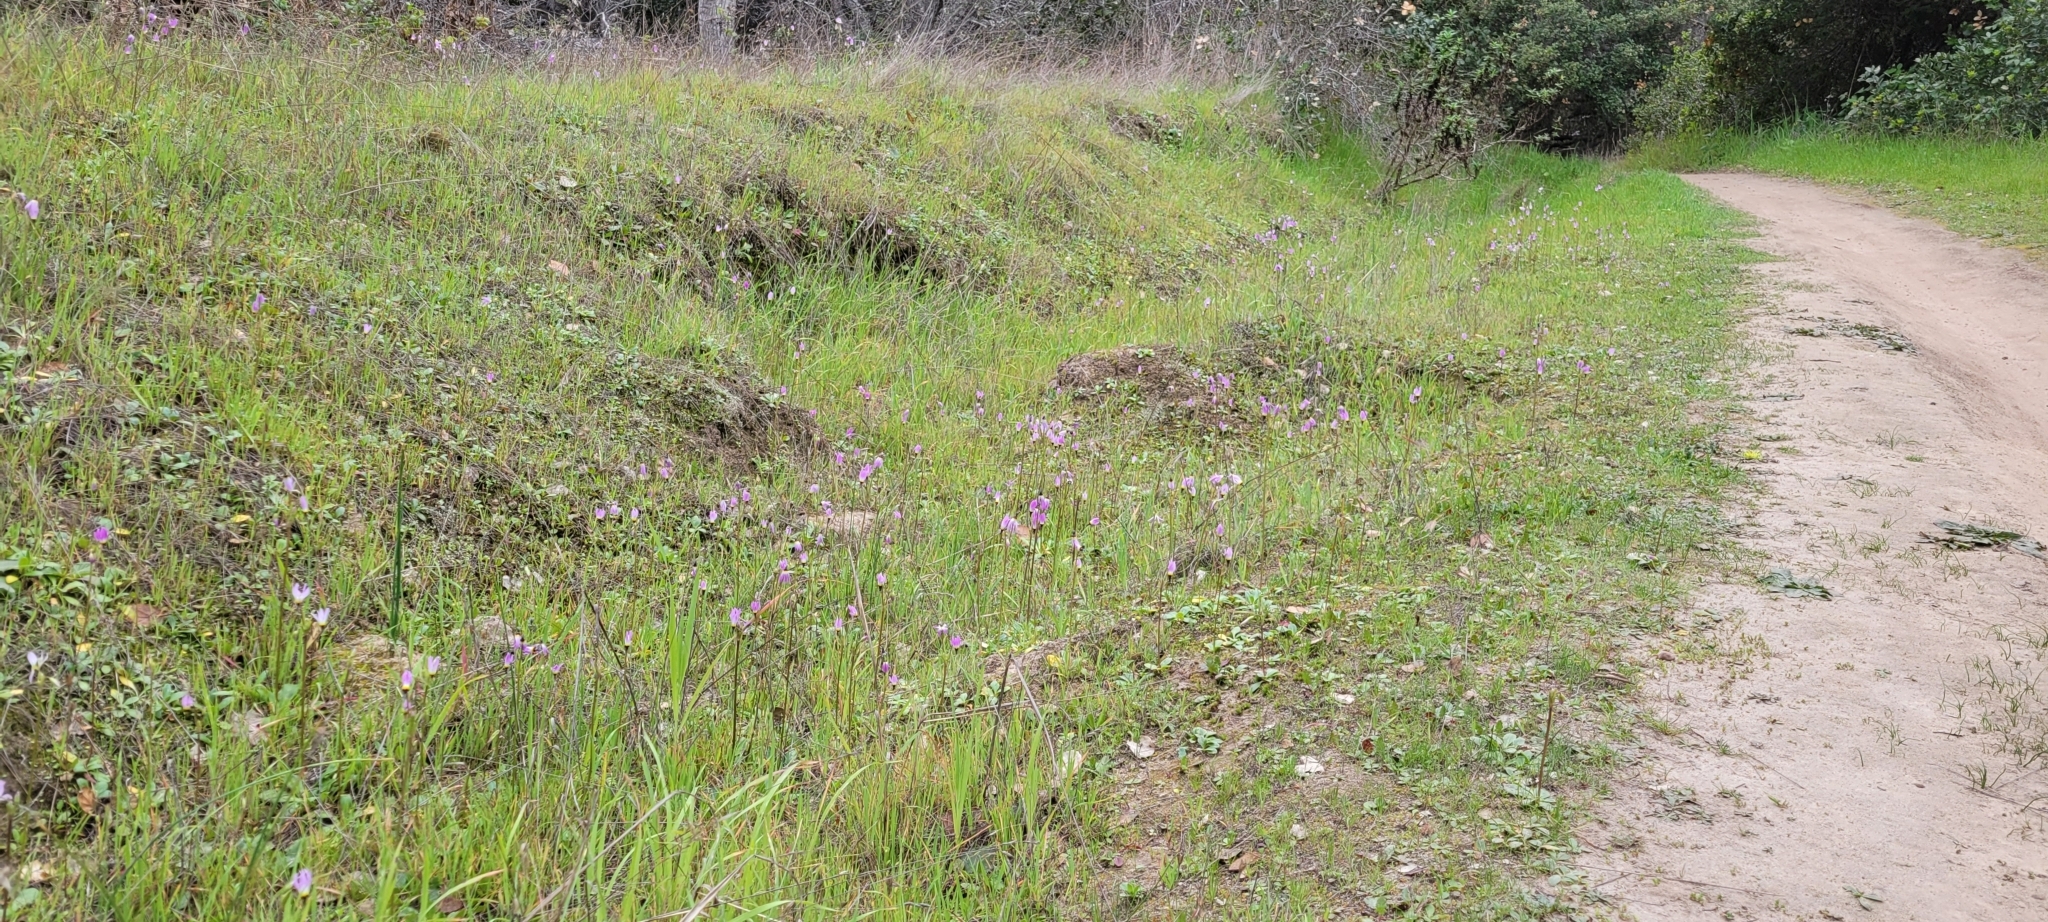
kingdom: Plantae
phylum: Tracheophyta
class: Magnoliopsida
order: Ericales
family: Primulaceae
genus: Dodecatheon
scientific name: Dodecatheon clevelandii
